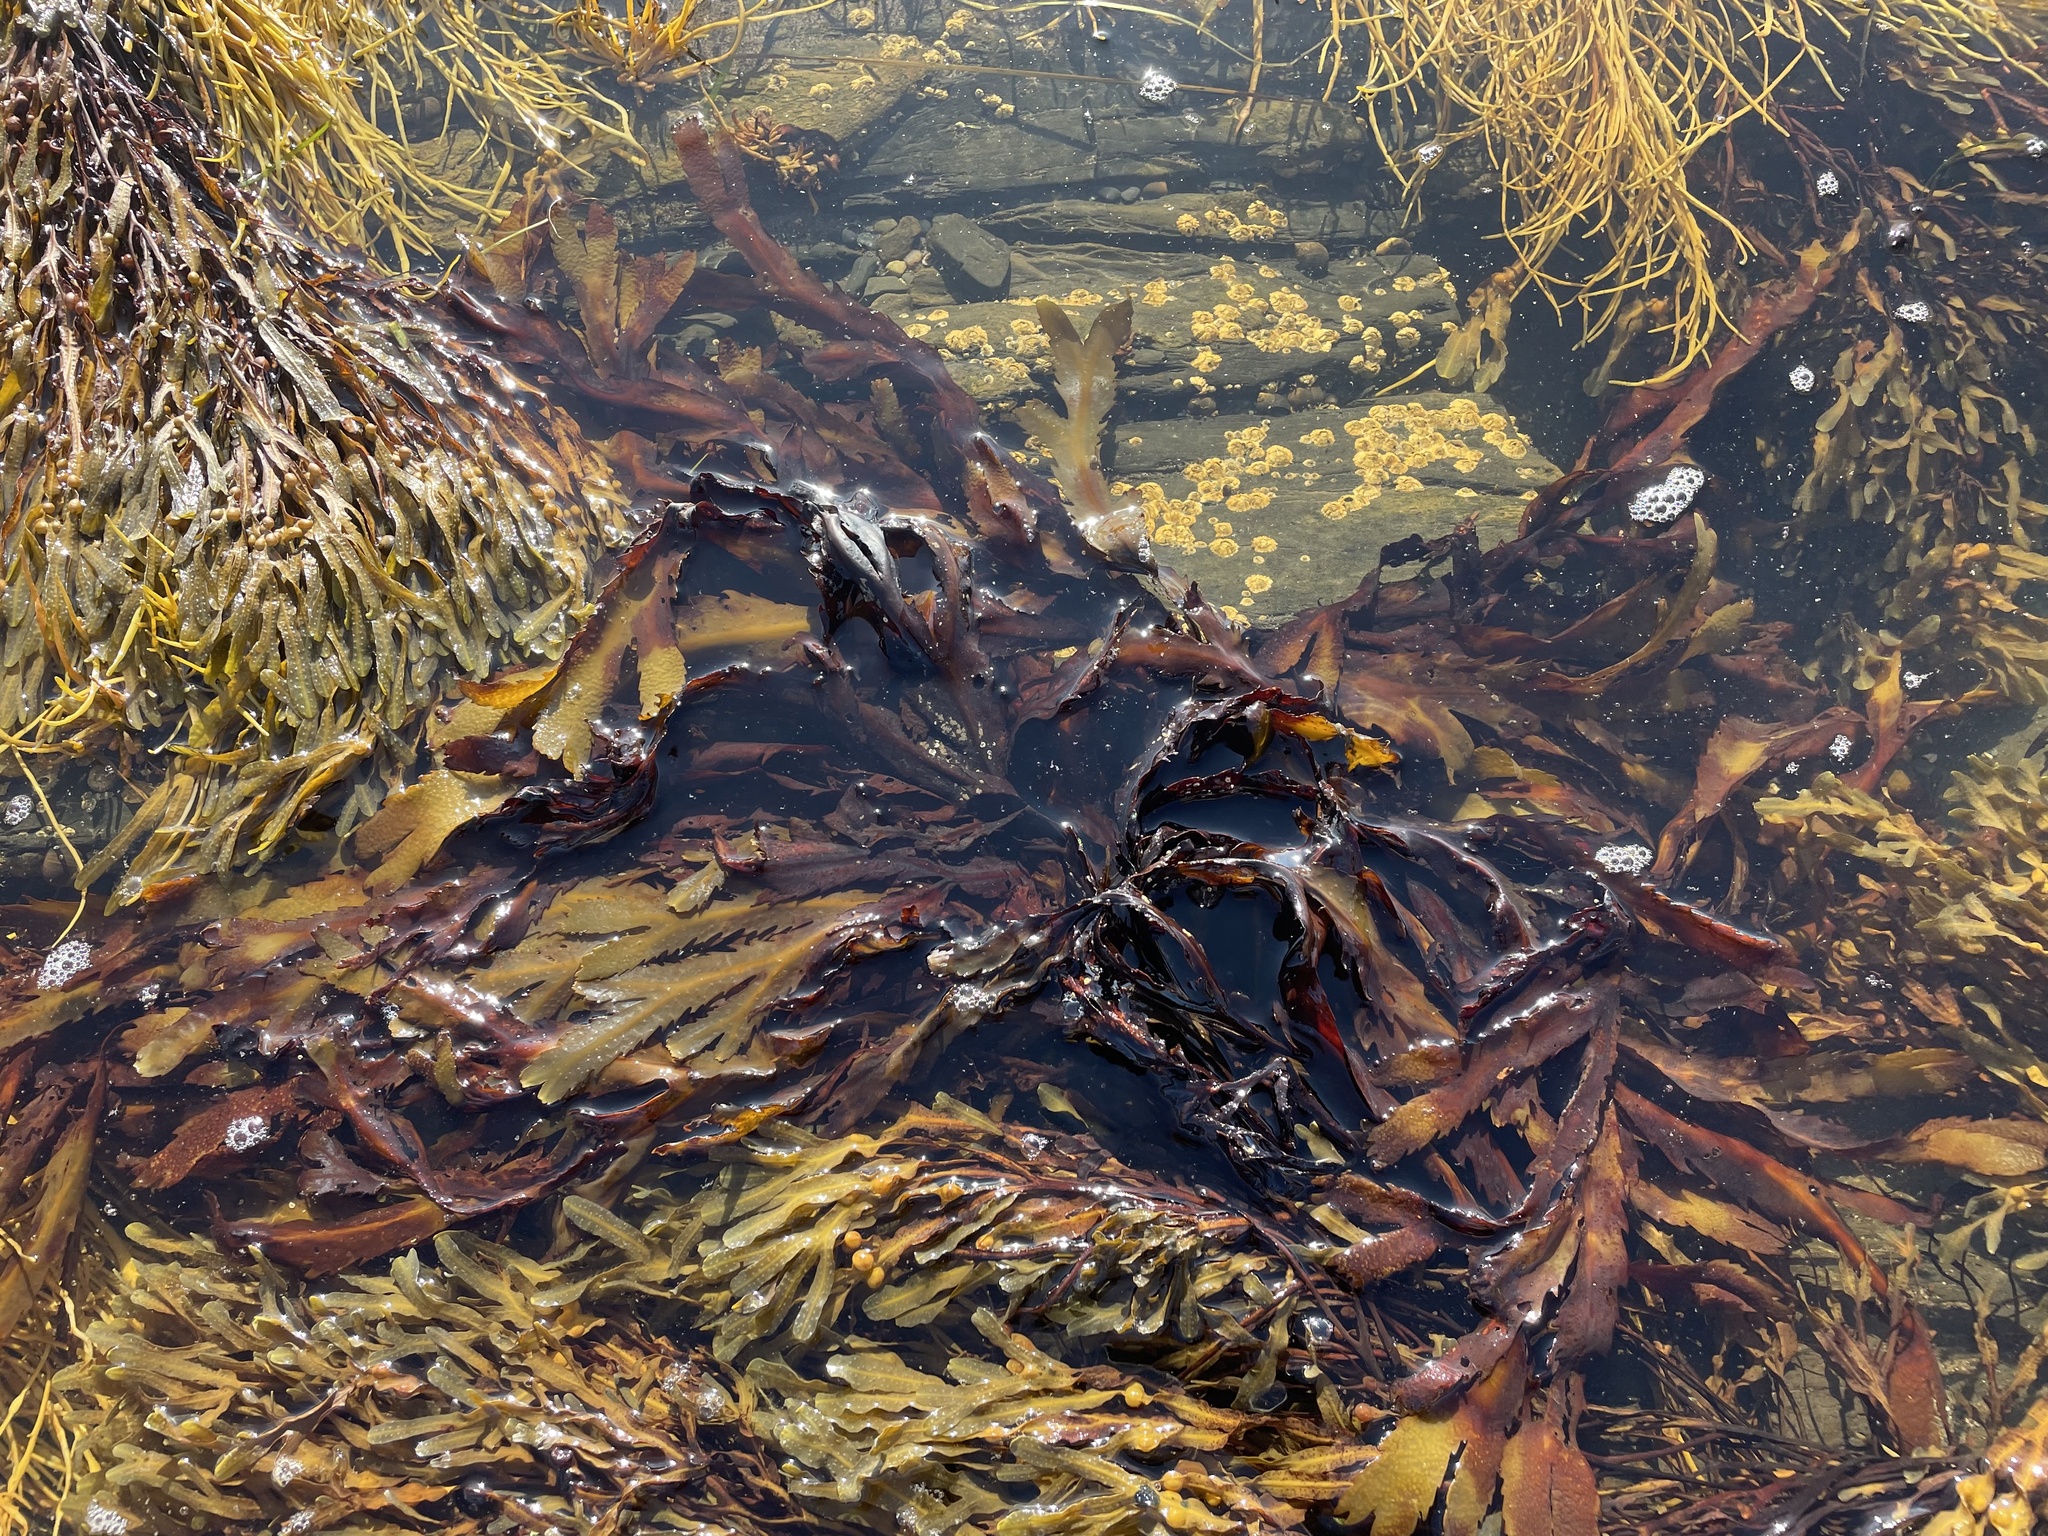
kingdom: Chromista
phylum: Ochrophyta
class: Phaeophyceae
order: Fucales
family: Fucaceae
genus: Fucus
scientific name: Fucus serratus
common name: Toothed wrack
